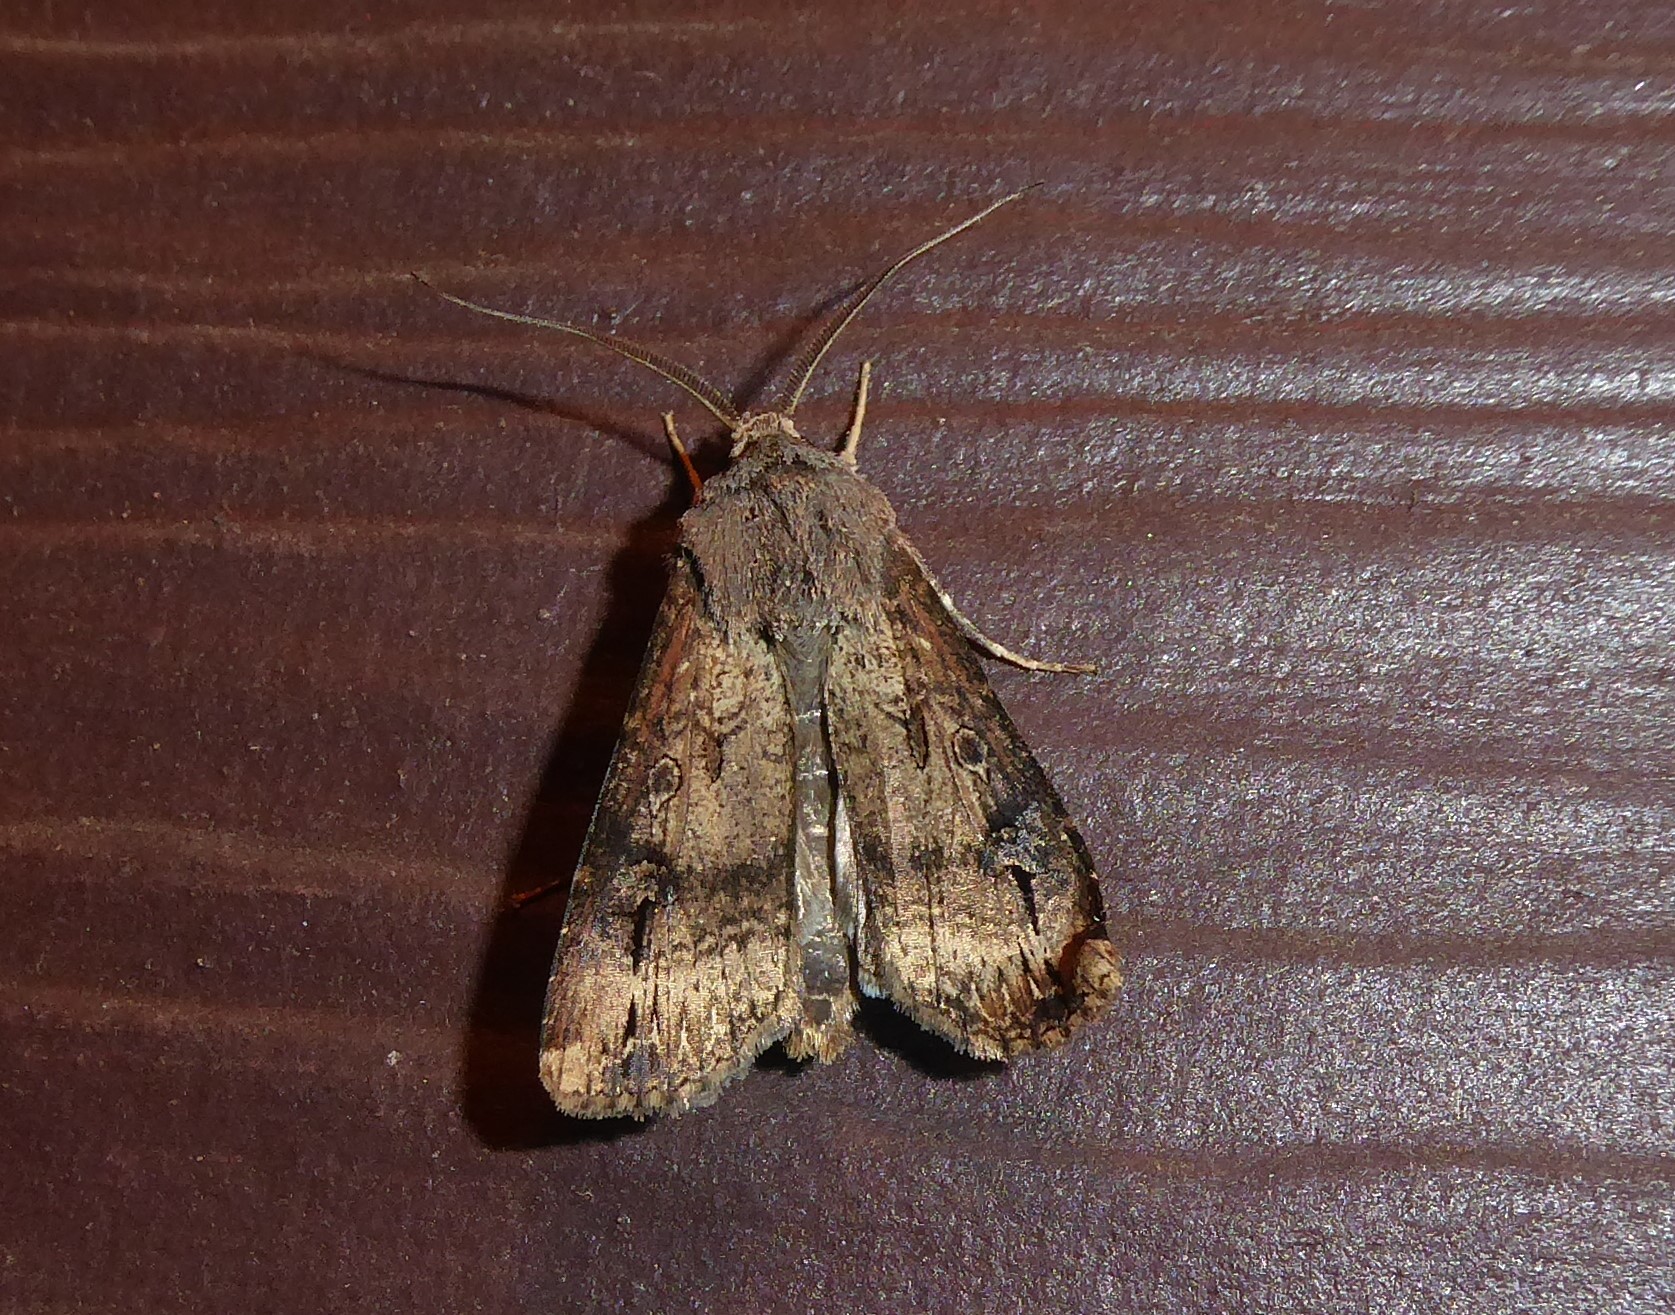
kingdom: Animalia
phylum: Arthropoda
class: Insecta
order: Lepidoptera
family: Noctuidae
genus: Agrotis
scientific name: Agrotis ipsilon
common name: Dark sword-grass
